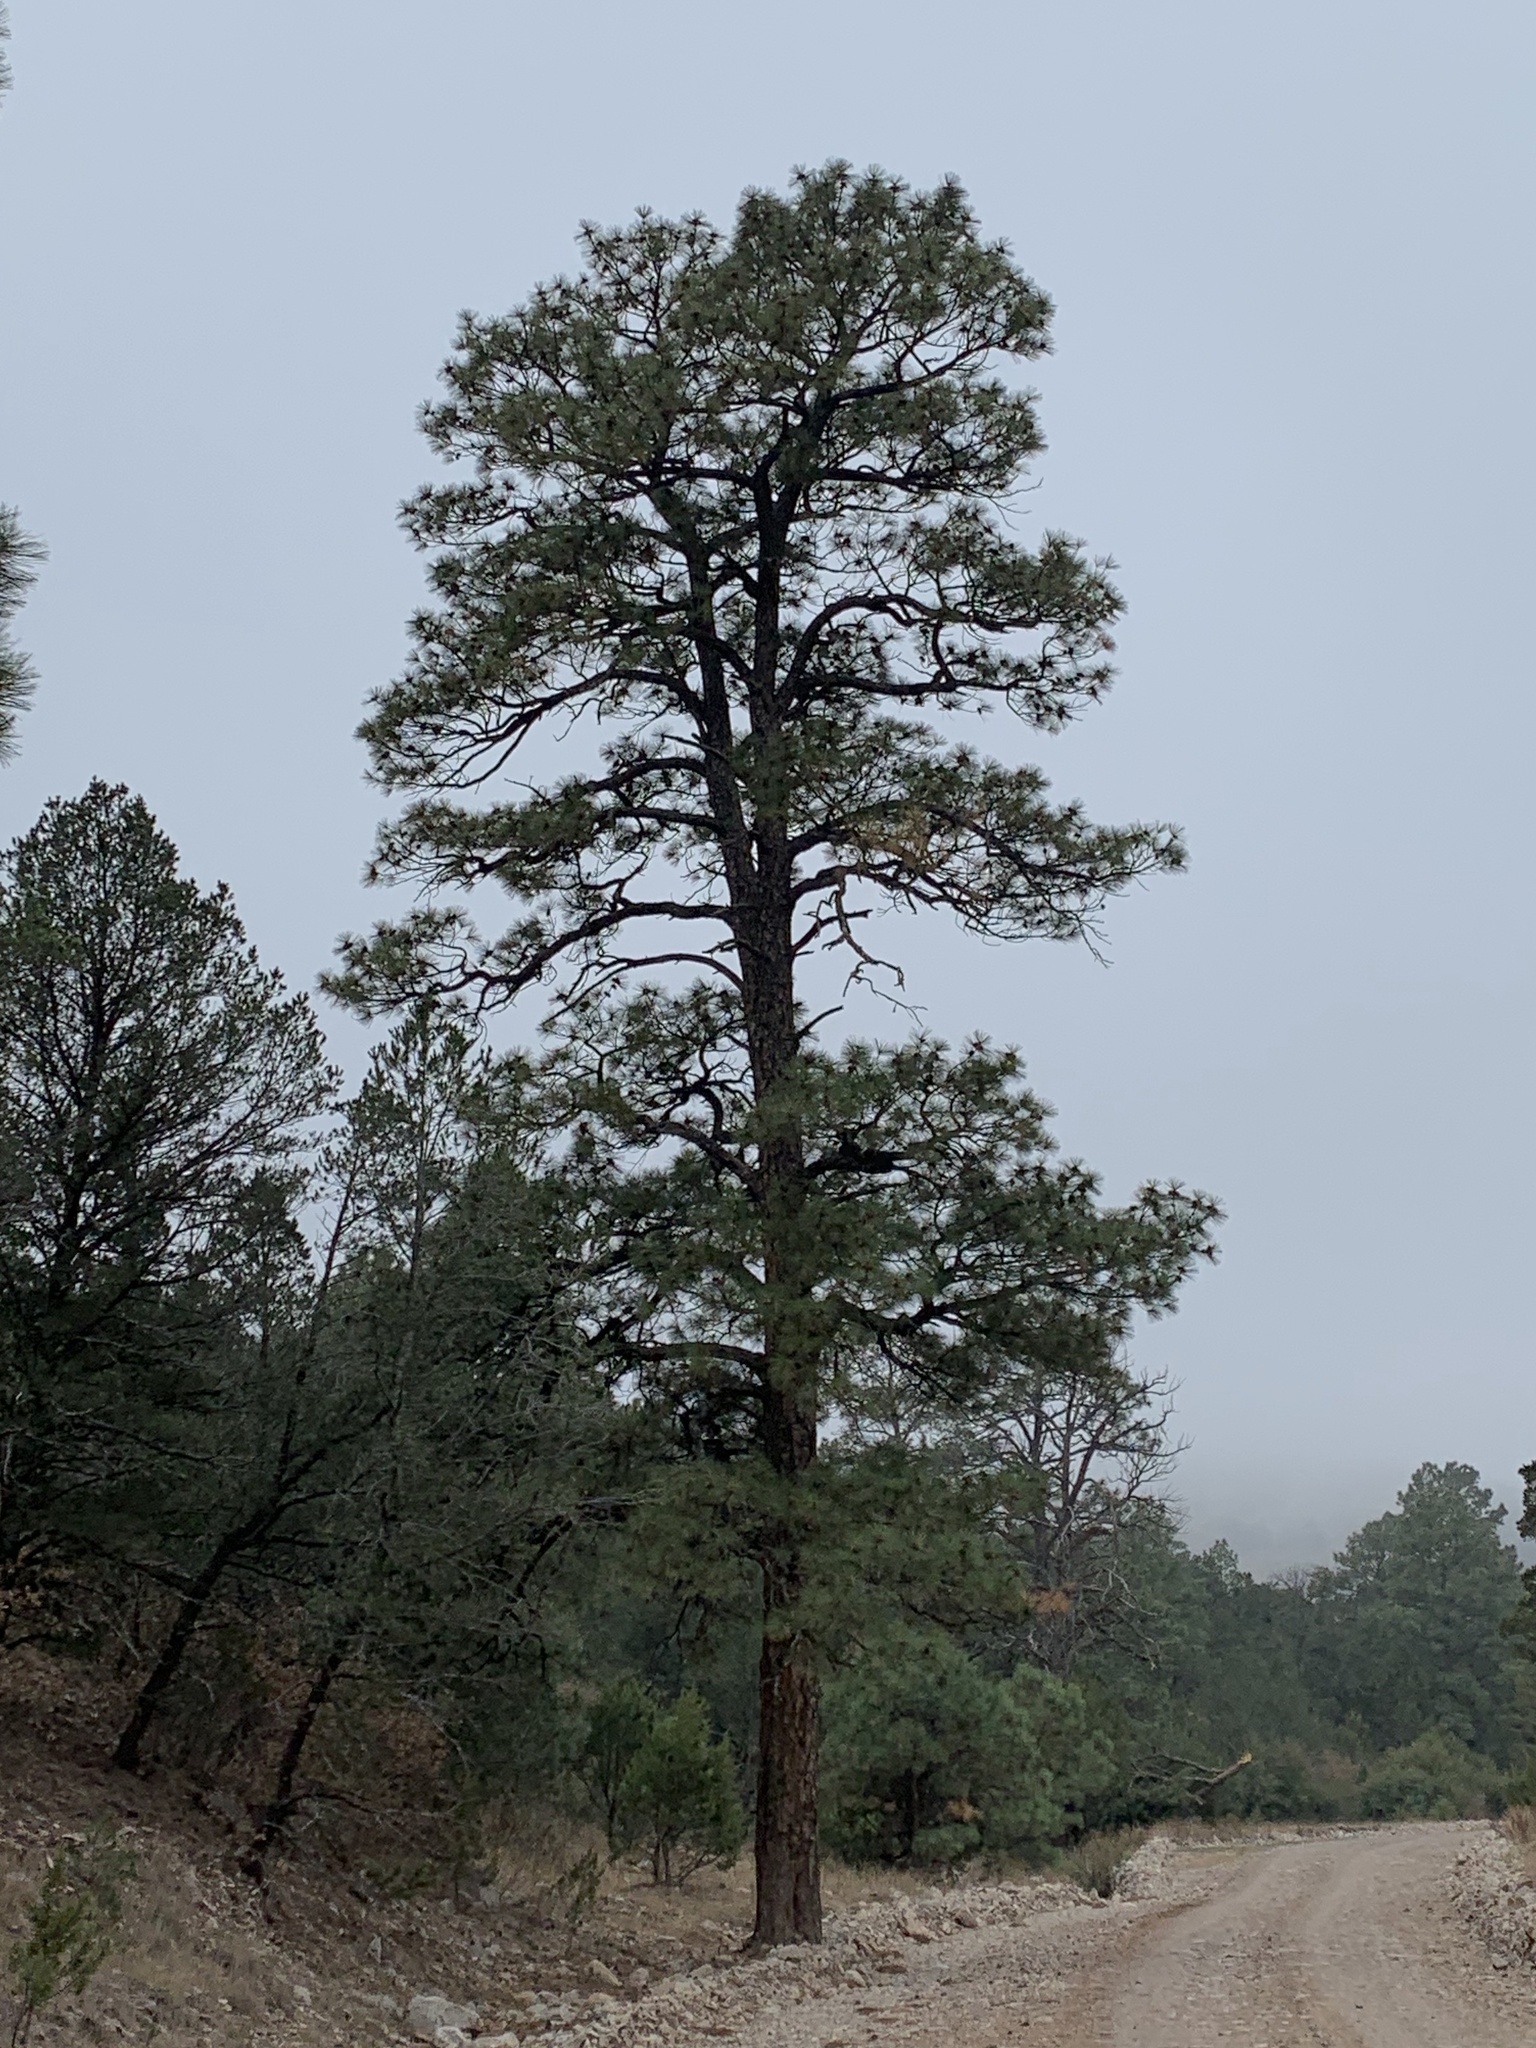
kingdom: Plantae
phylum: Tracheophyta
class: Pinopsida
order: Pinales
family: Pinaceae
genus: Pinus
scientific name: Pinus ponderosa
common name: Western yellow-pine
